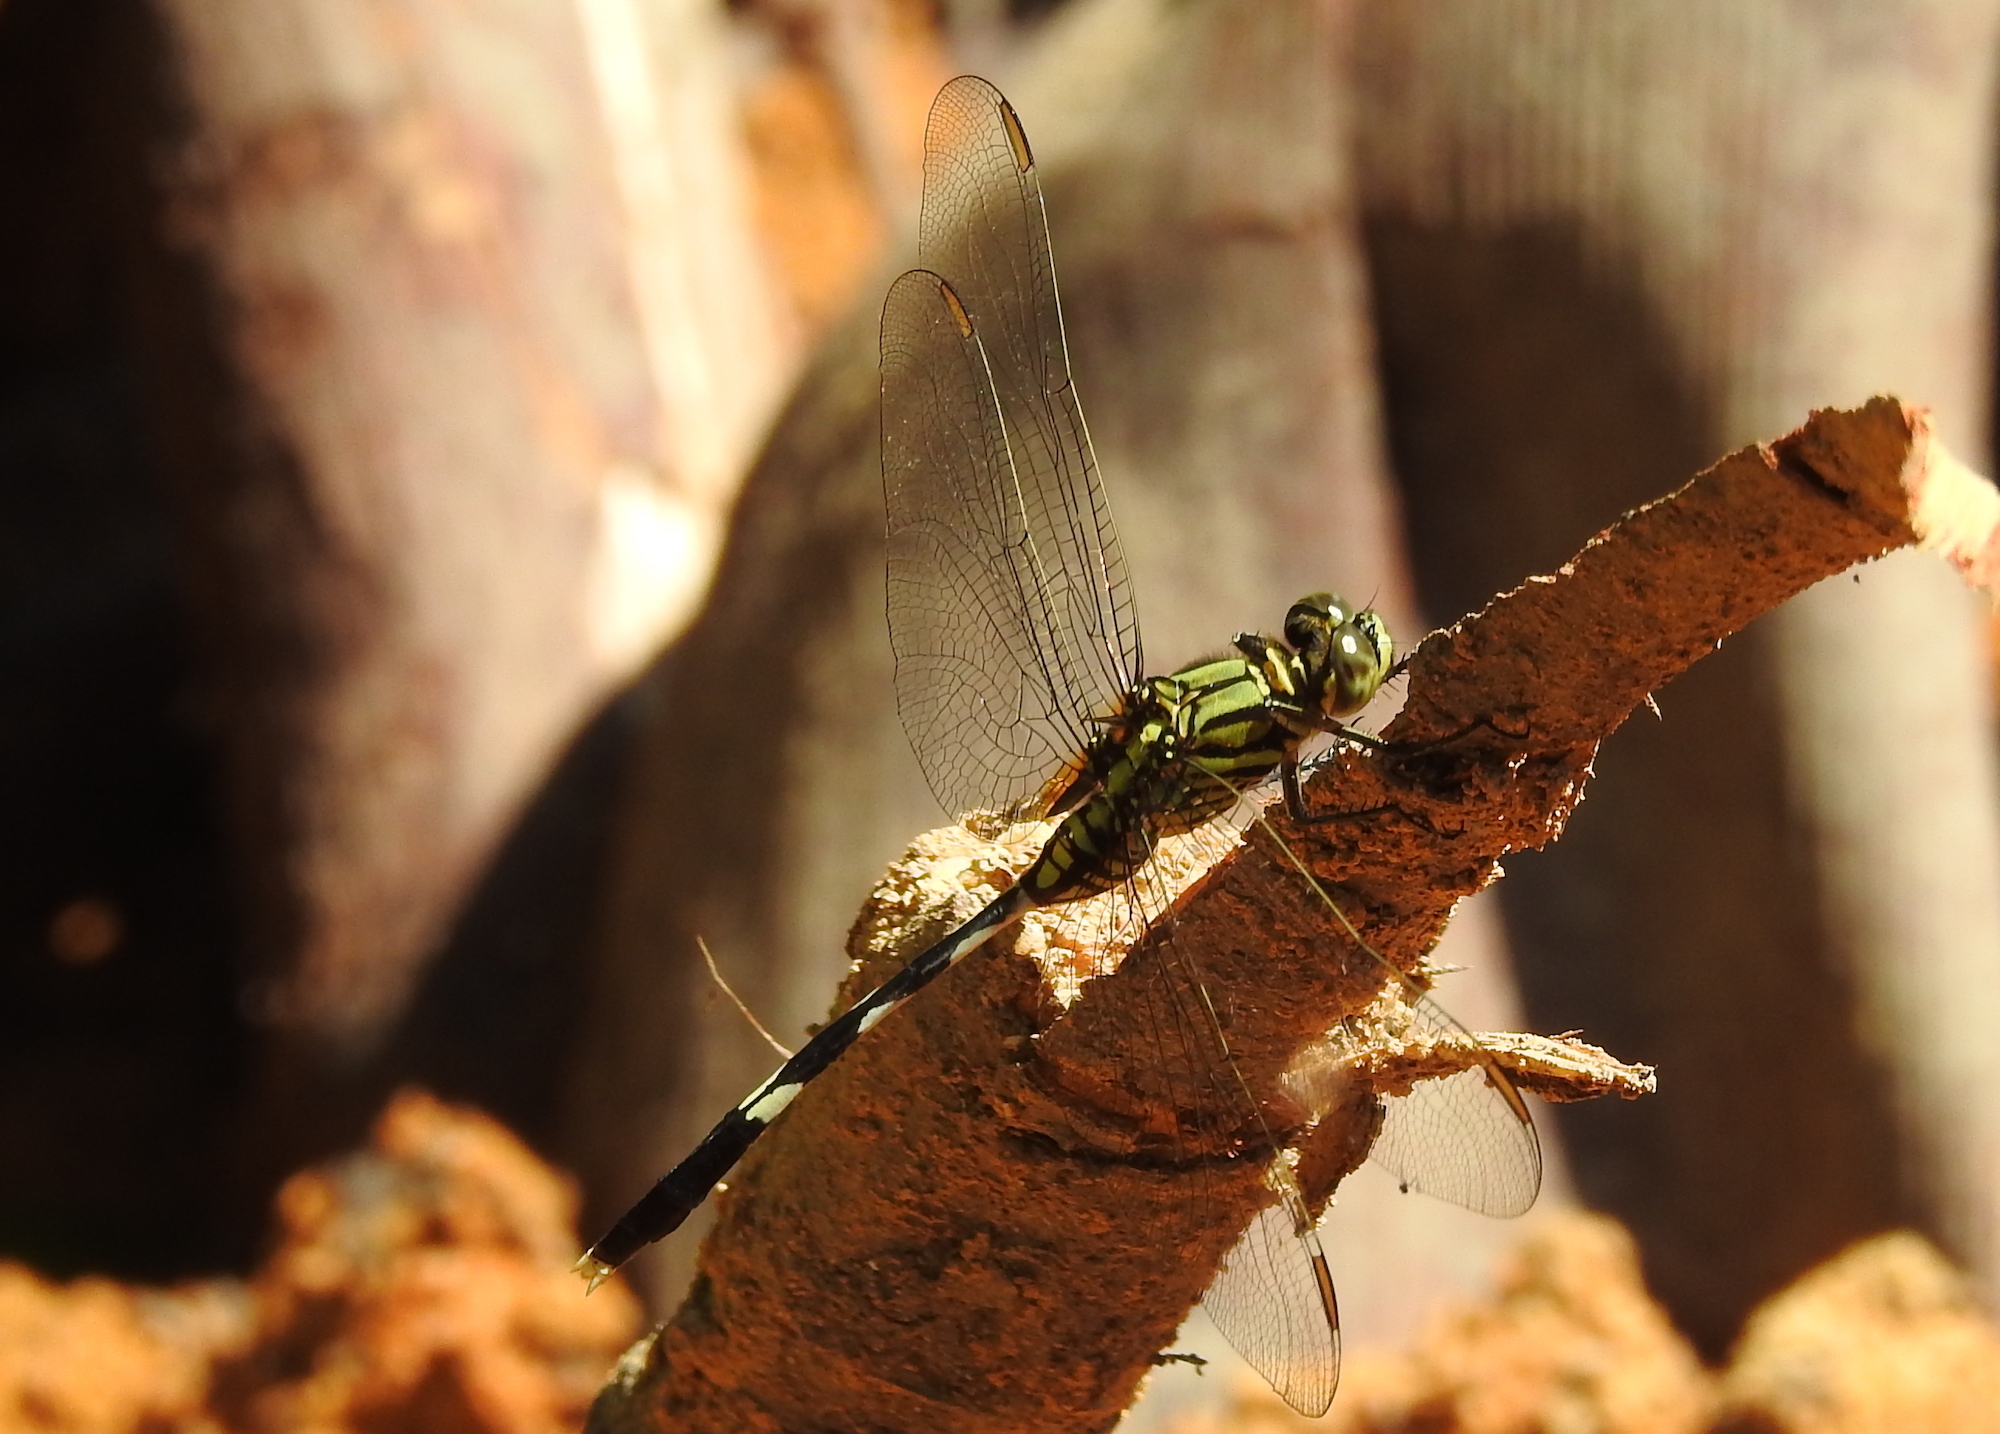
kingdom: Animalia
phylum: Arthropoda
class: Insecta
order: Odonata
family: Libellulidae
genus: Orthetrum
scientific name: Orthetrum sabina
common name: Slender skimmer
